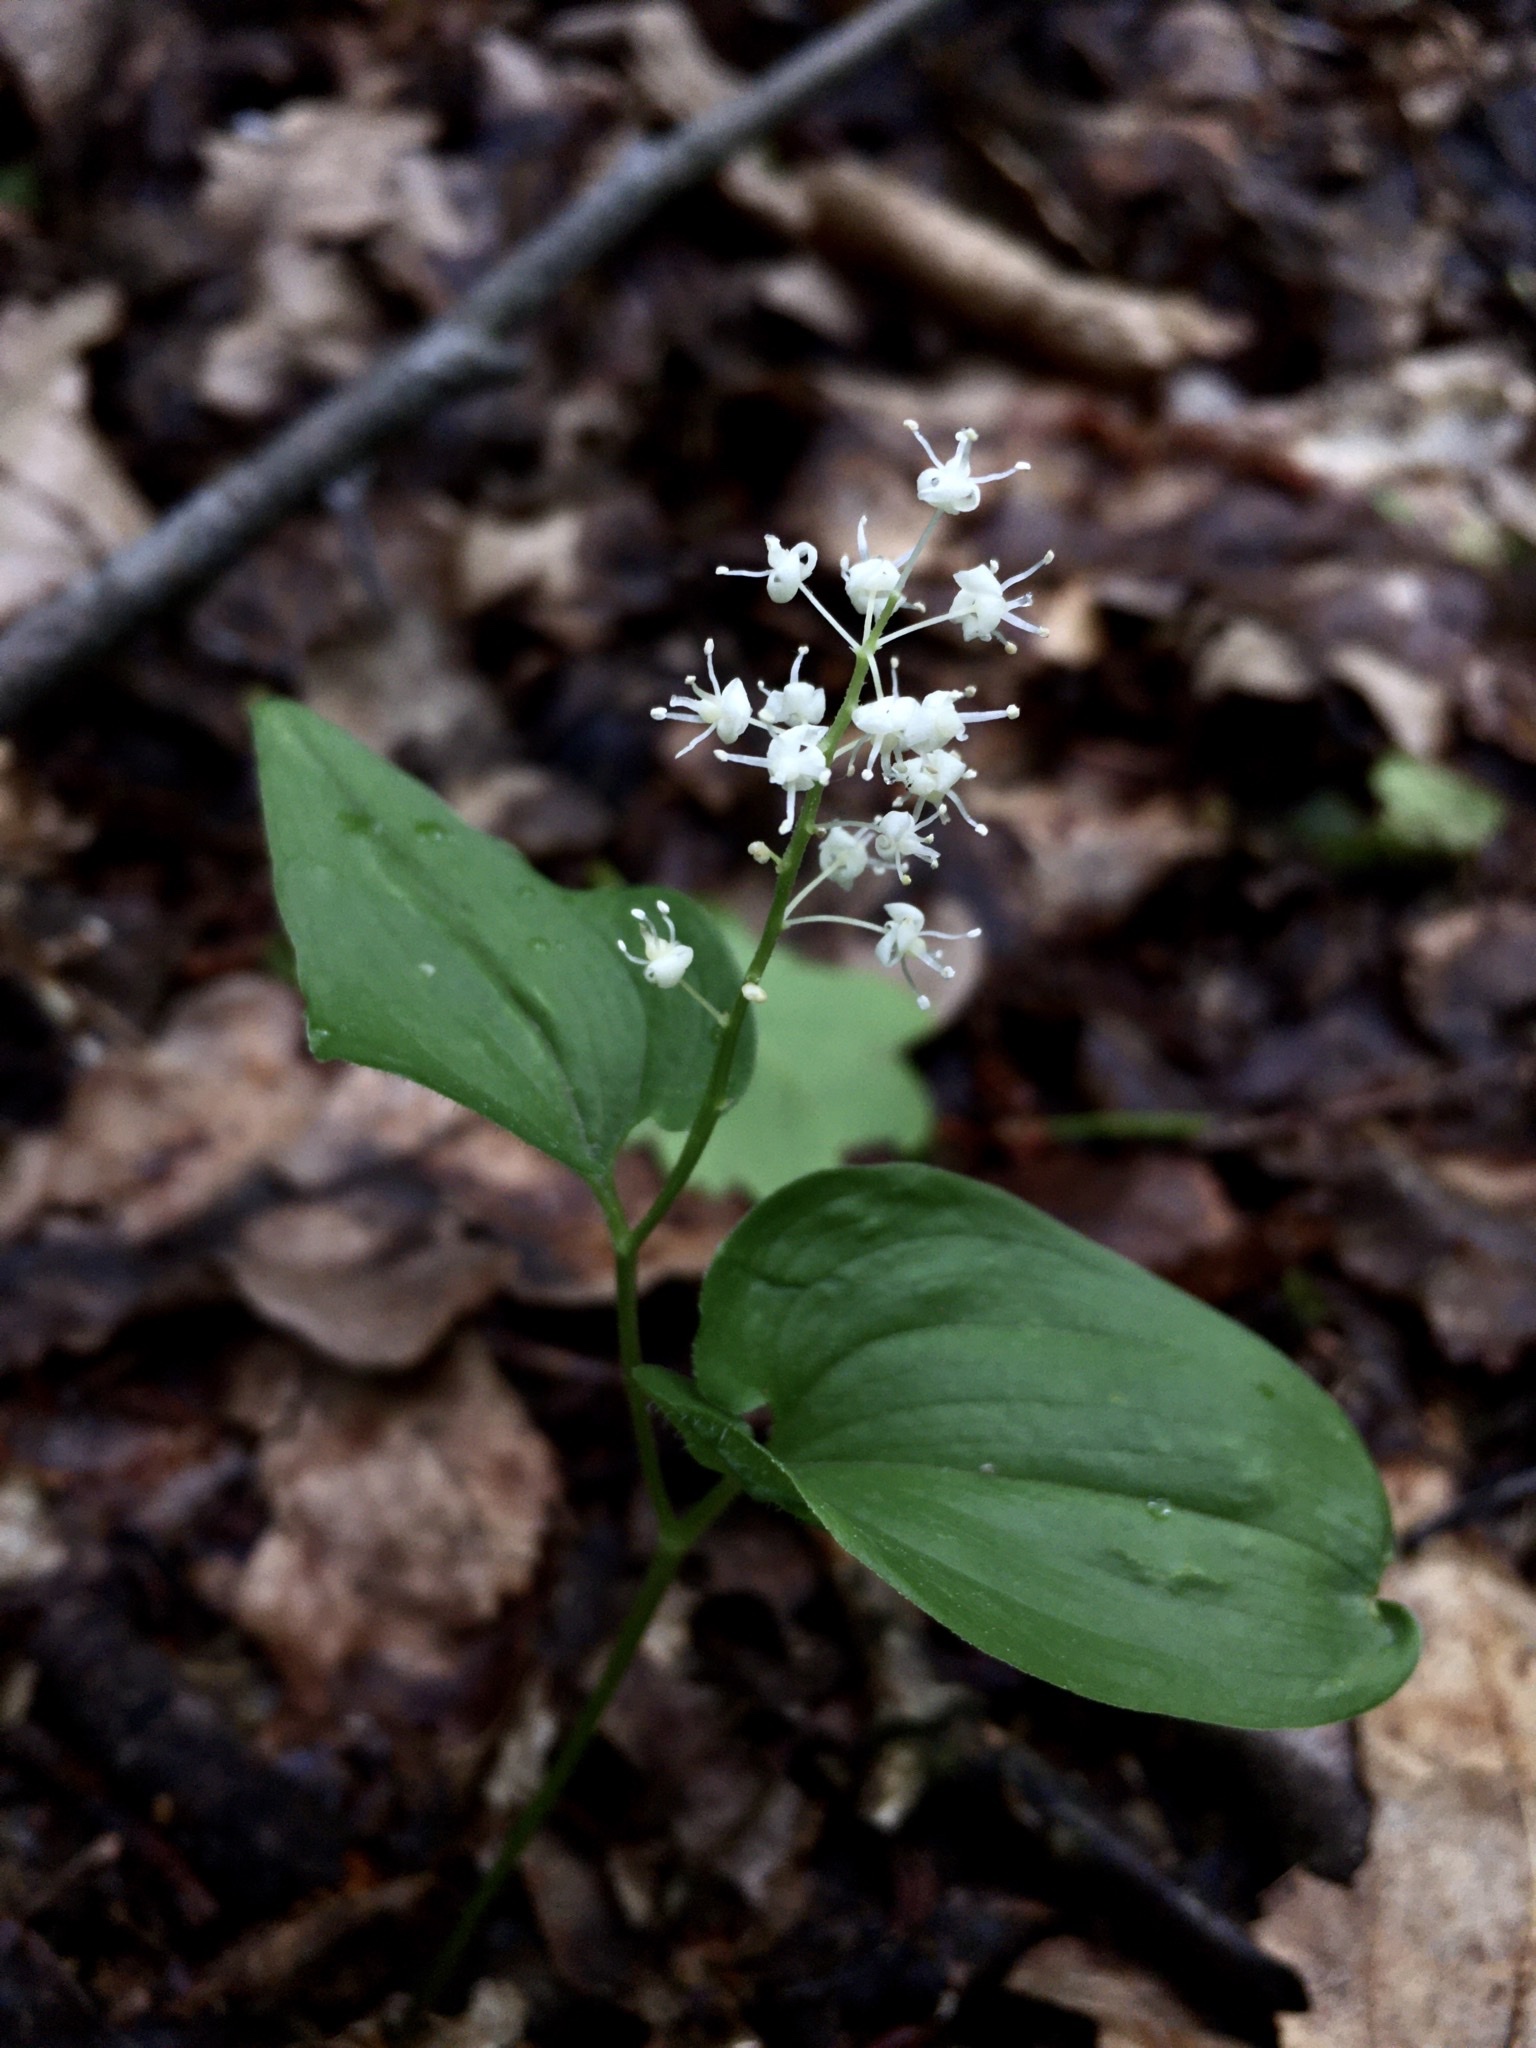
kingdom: Plantae
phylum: Tracheophyta
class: Liliopsida
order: Asparagales
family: Asparagaceae
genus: Maianthemum
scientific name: Maianthemum bifolium
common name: May lily
